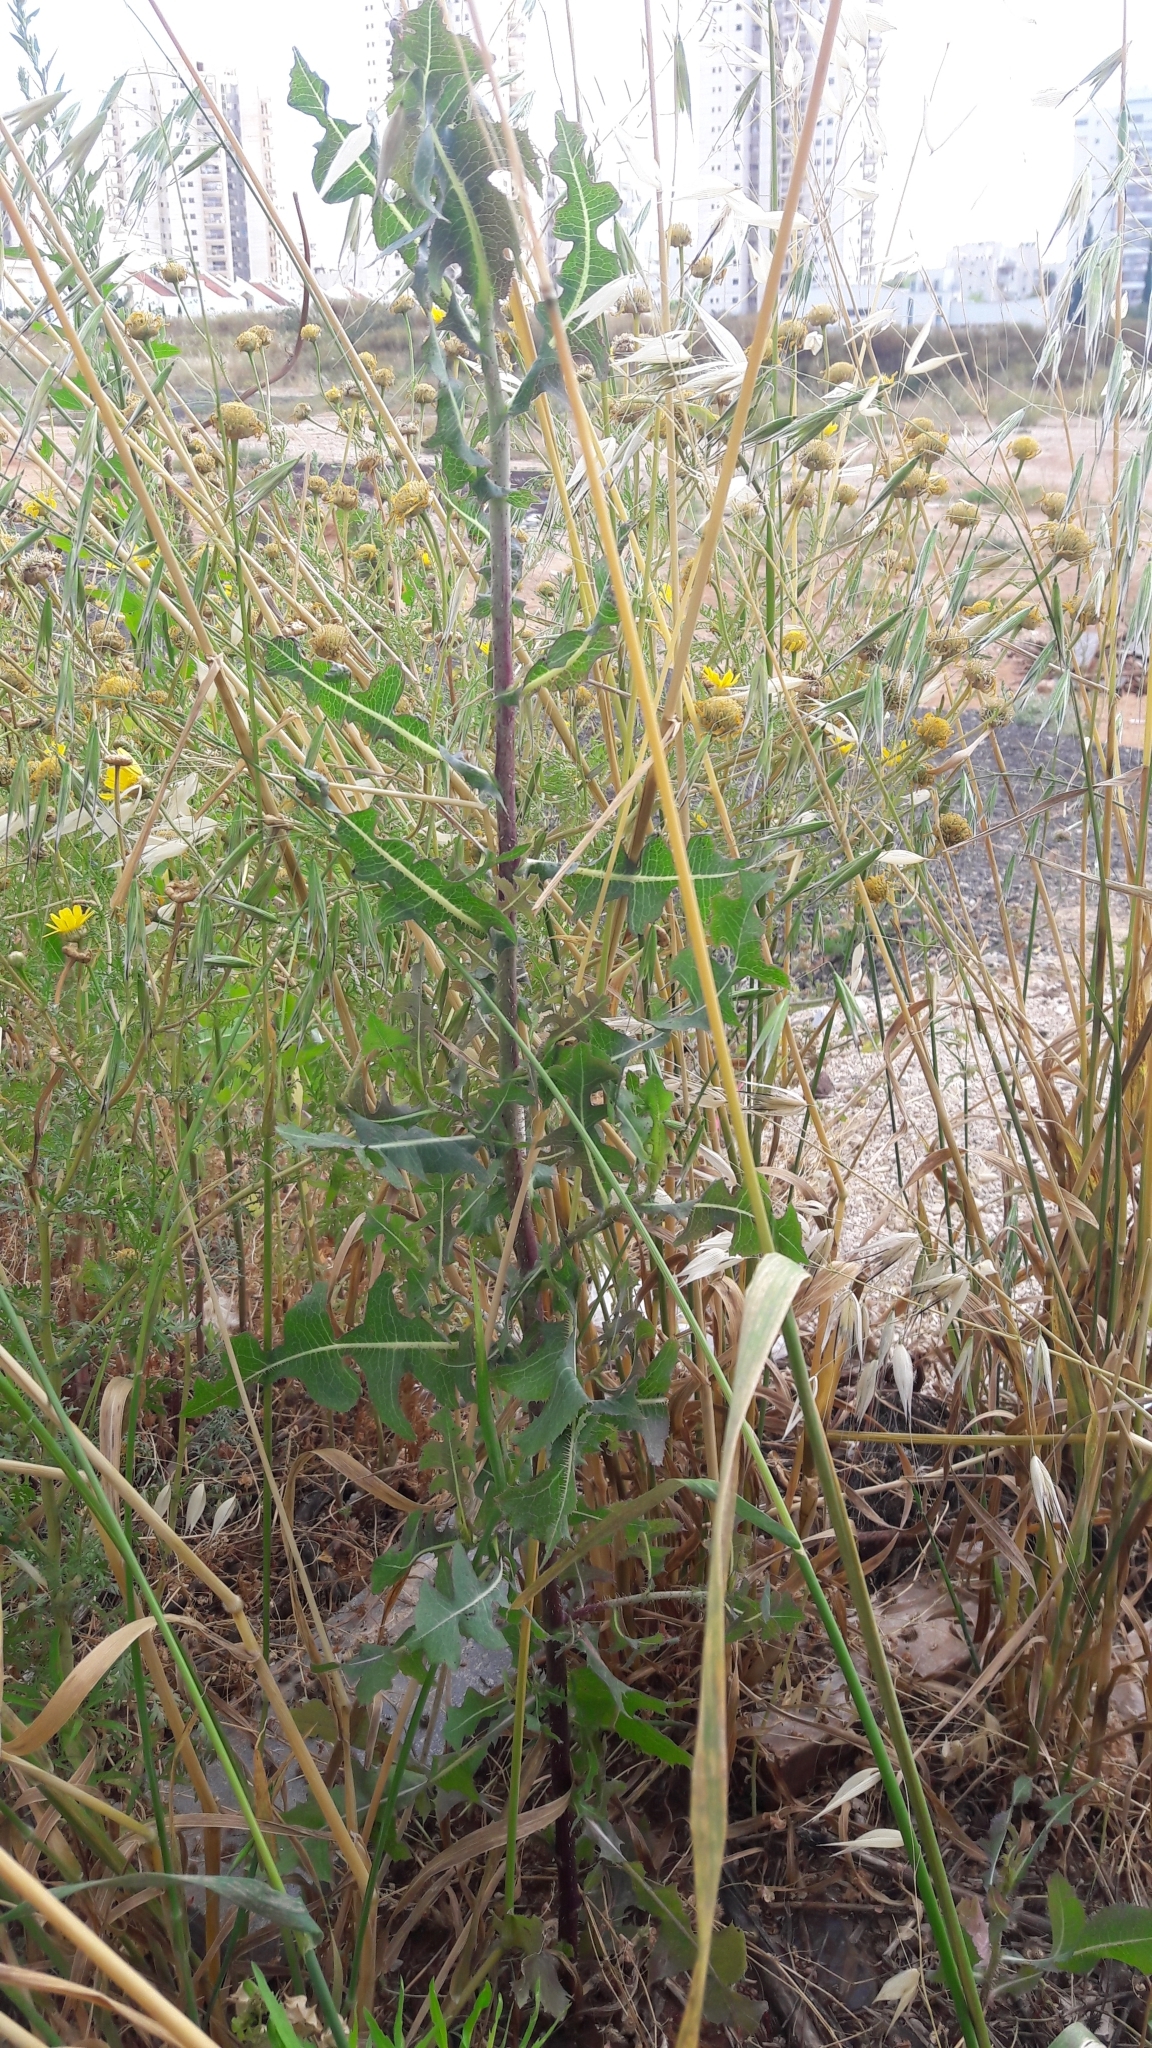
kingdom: Plantae
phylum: Tracheophyta
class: Magnoliopsida
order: Asterales
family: Asteraceae
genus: Lactuca
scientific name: Lactuca serriola
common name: Prickly lettuce
